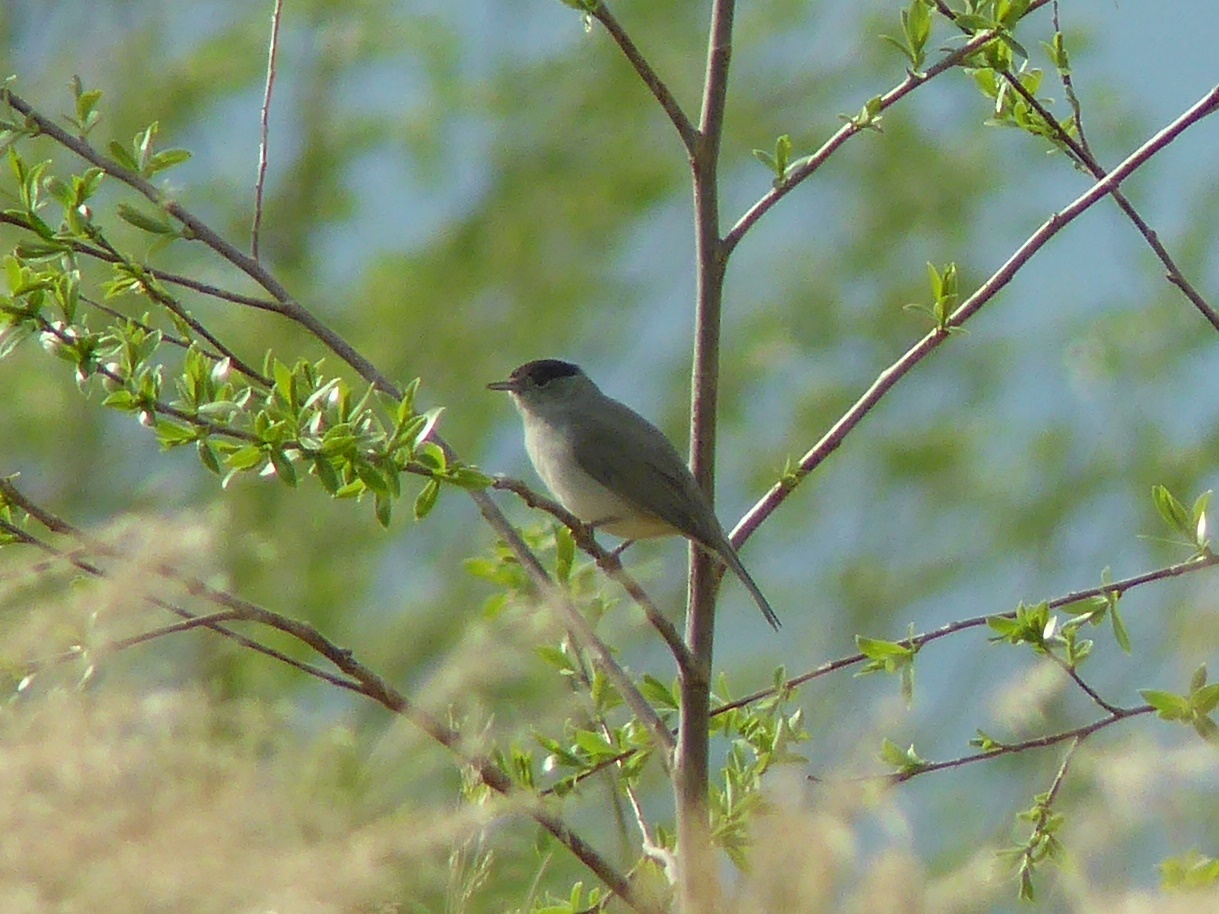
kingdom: Animalia
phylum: Chordata
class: Aves
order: Passeriformes
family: Sylviidae
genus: Sylvia
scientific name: Sylvia atricapilla
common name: Eurasian blackcap
